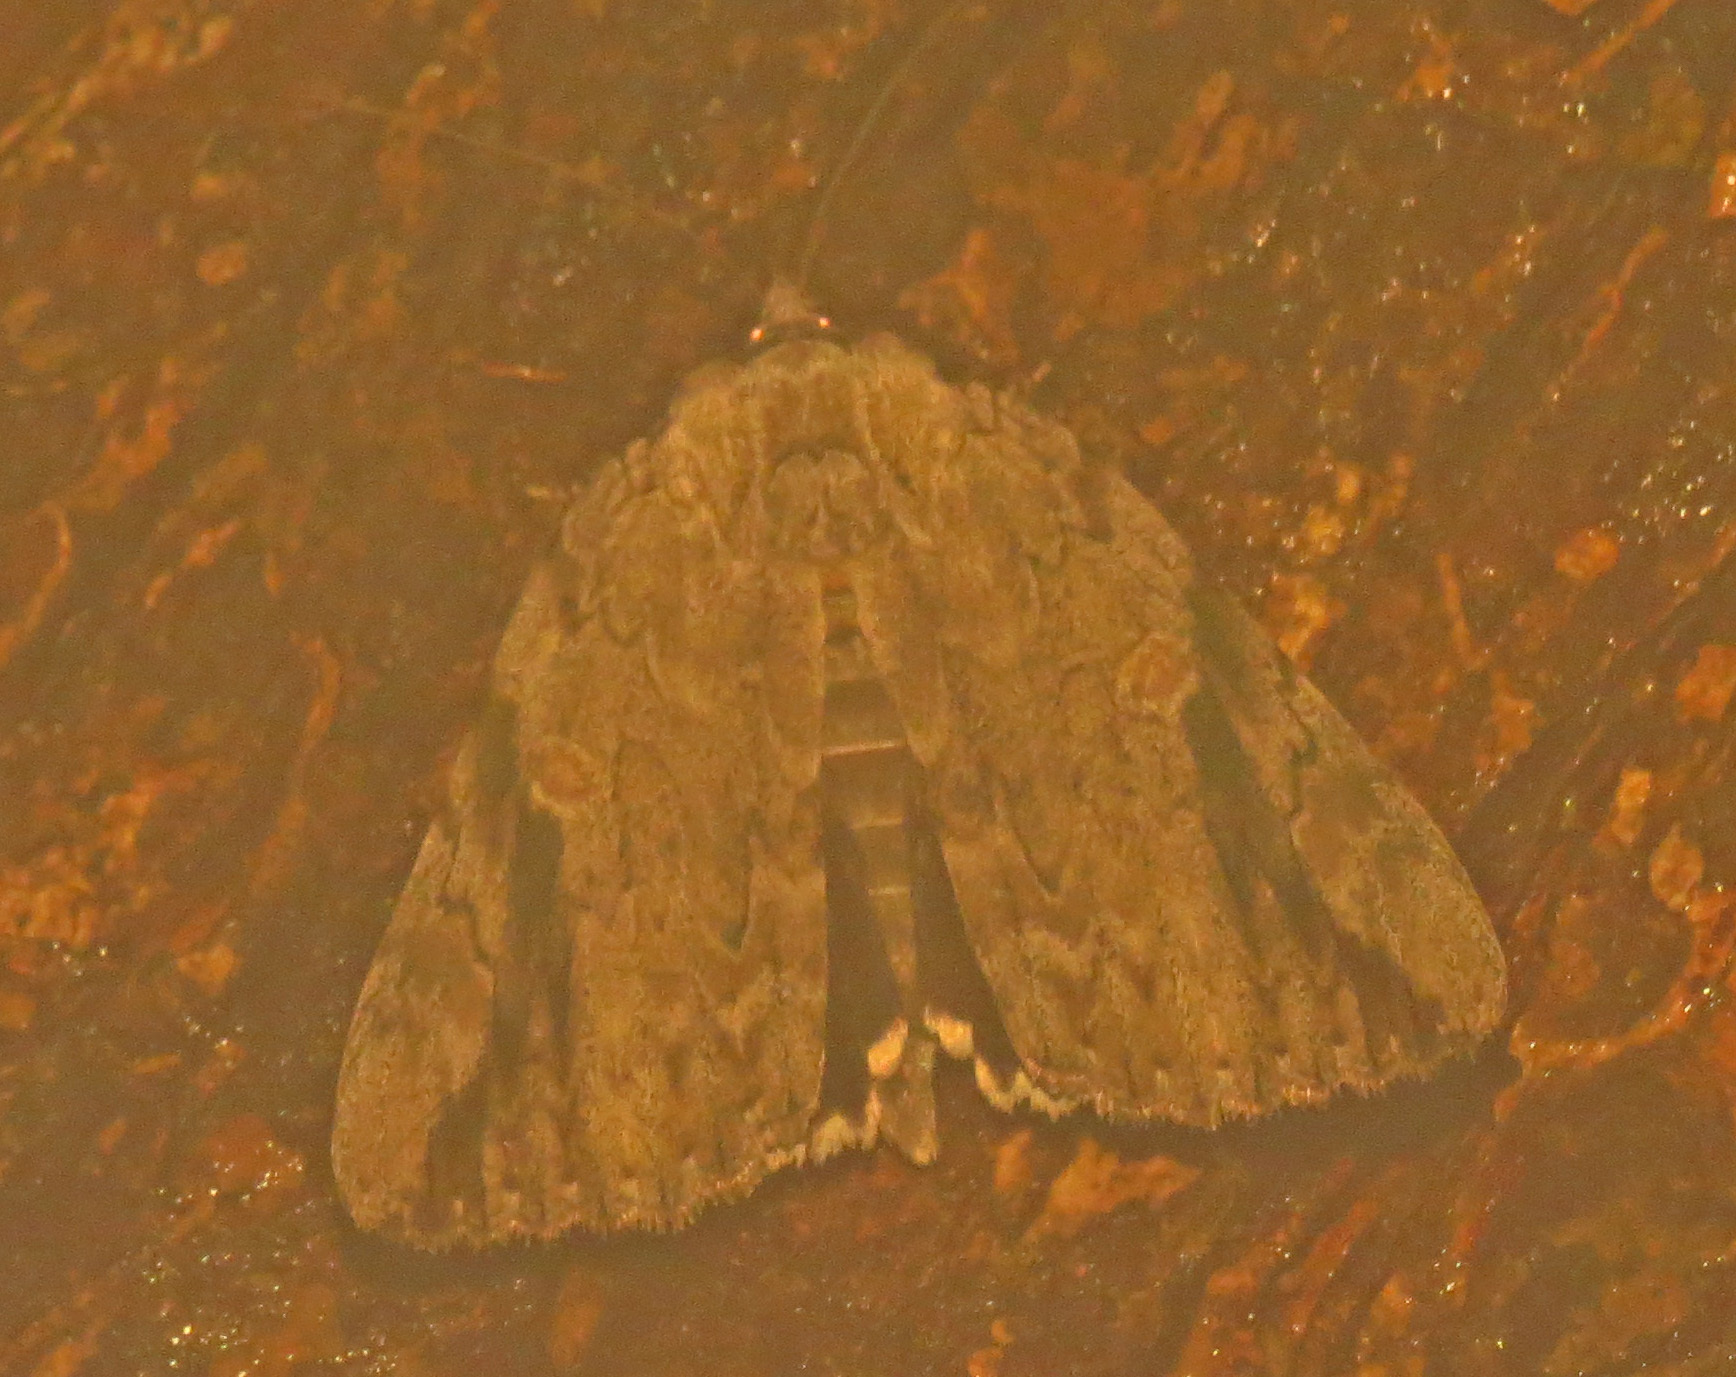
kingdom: Animalia
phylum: Arthropoda
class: Insecta
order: Lepidoptera
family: Erebidae
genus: Catocala
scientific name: Catocala maestosa
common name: Sad underwing
